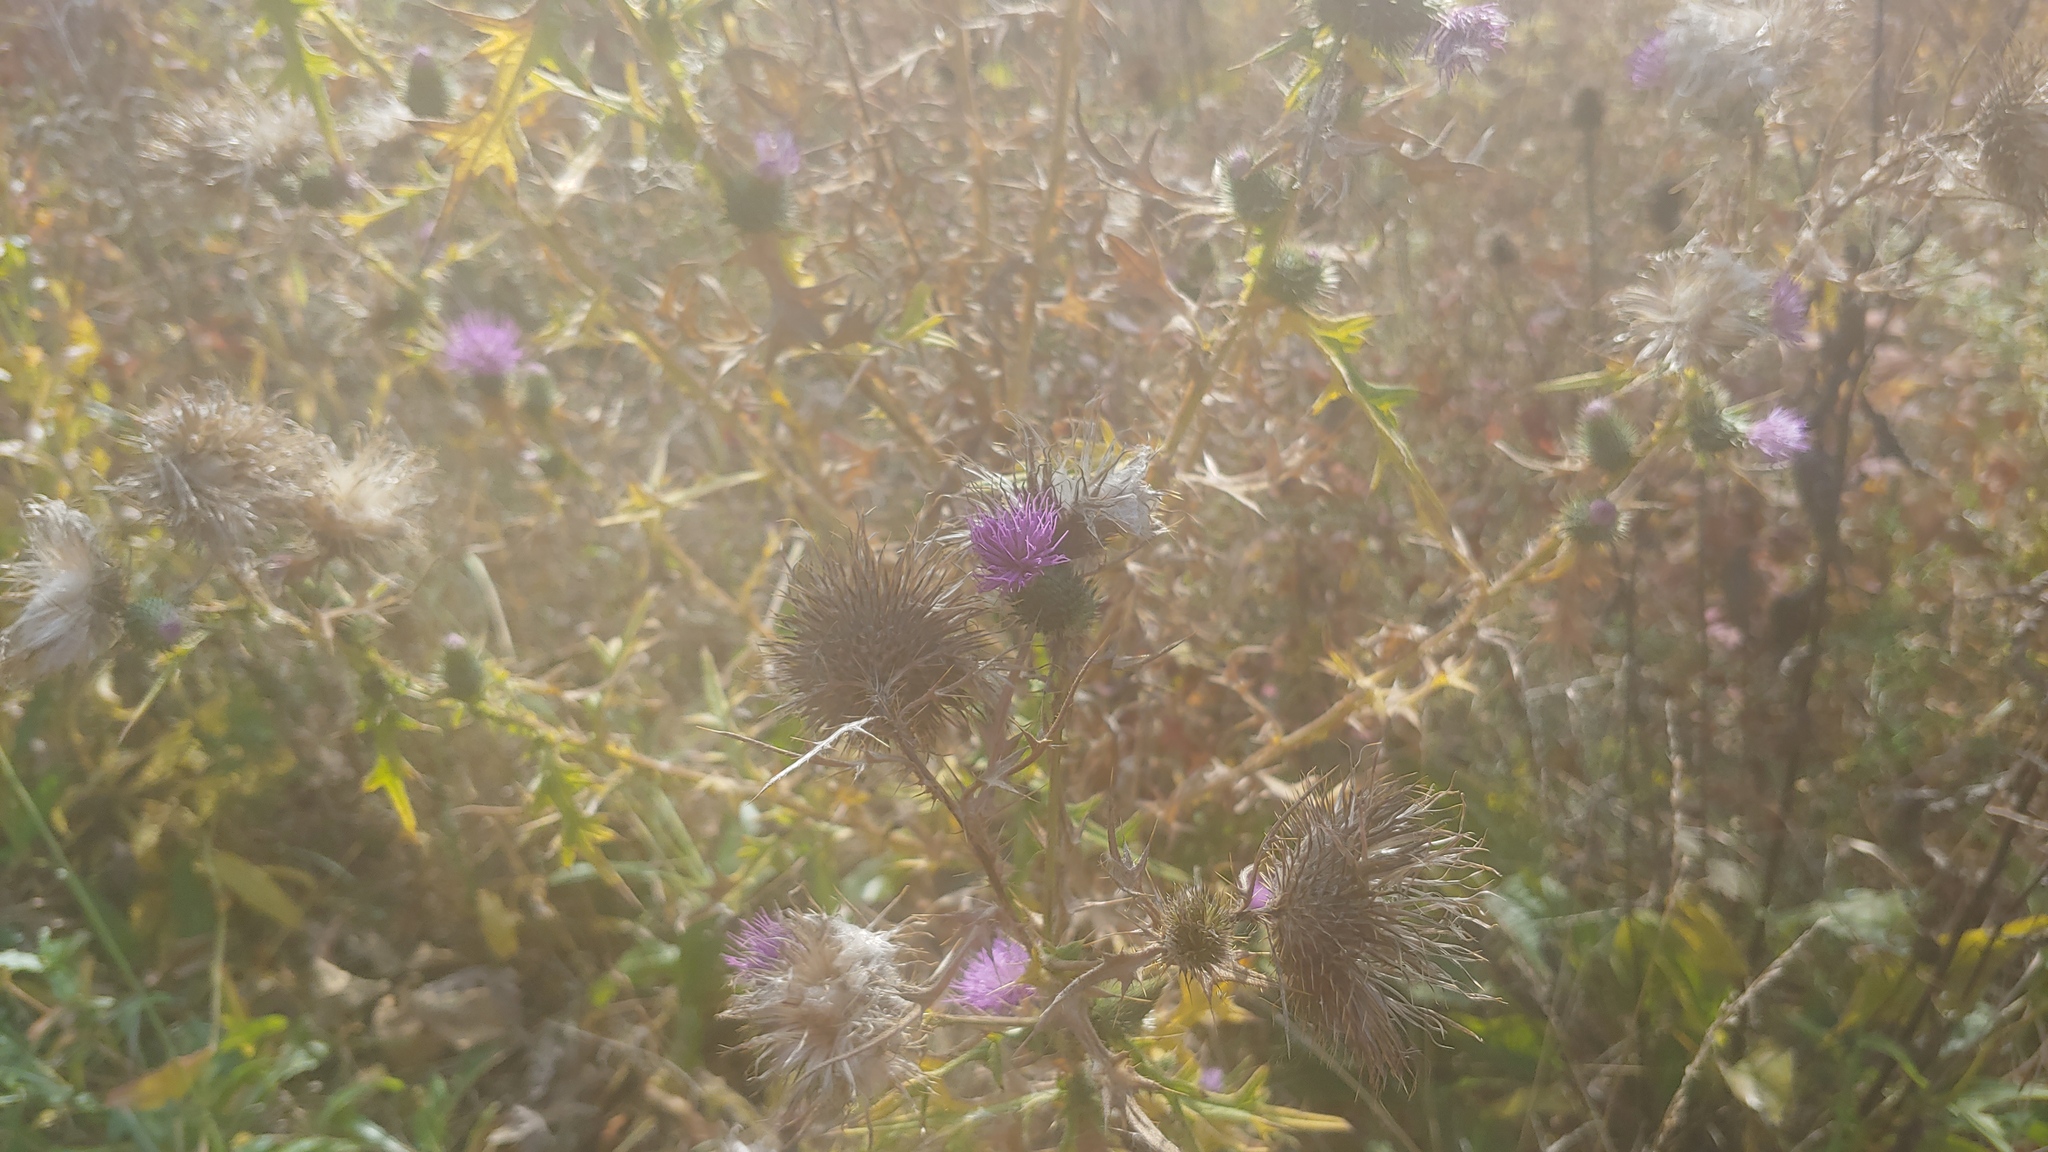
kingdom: Plantae
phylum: Tracheophyta
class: Magnoliopsida
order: Asterales
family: Asteraceae
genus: Cirsium
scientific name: Cirsium vulgare
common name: Bull thistle
